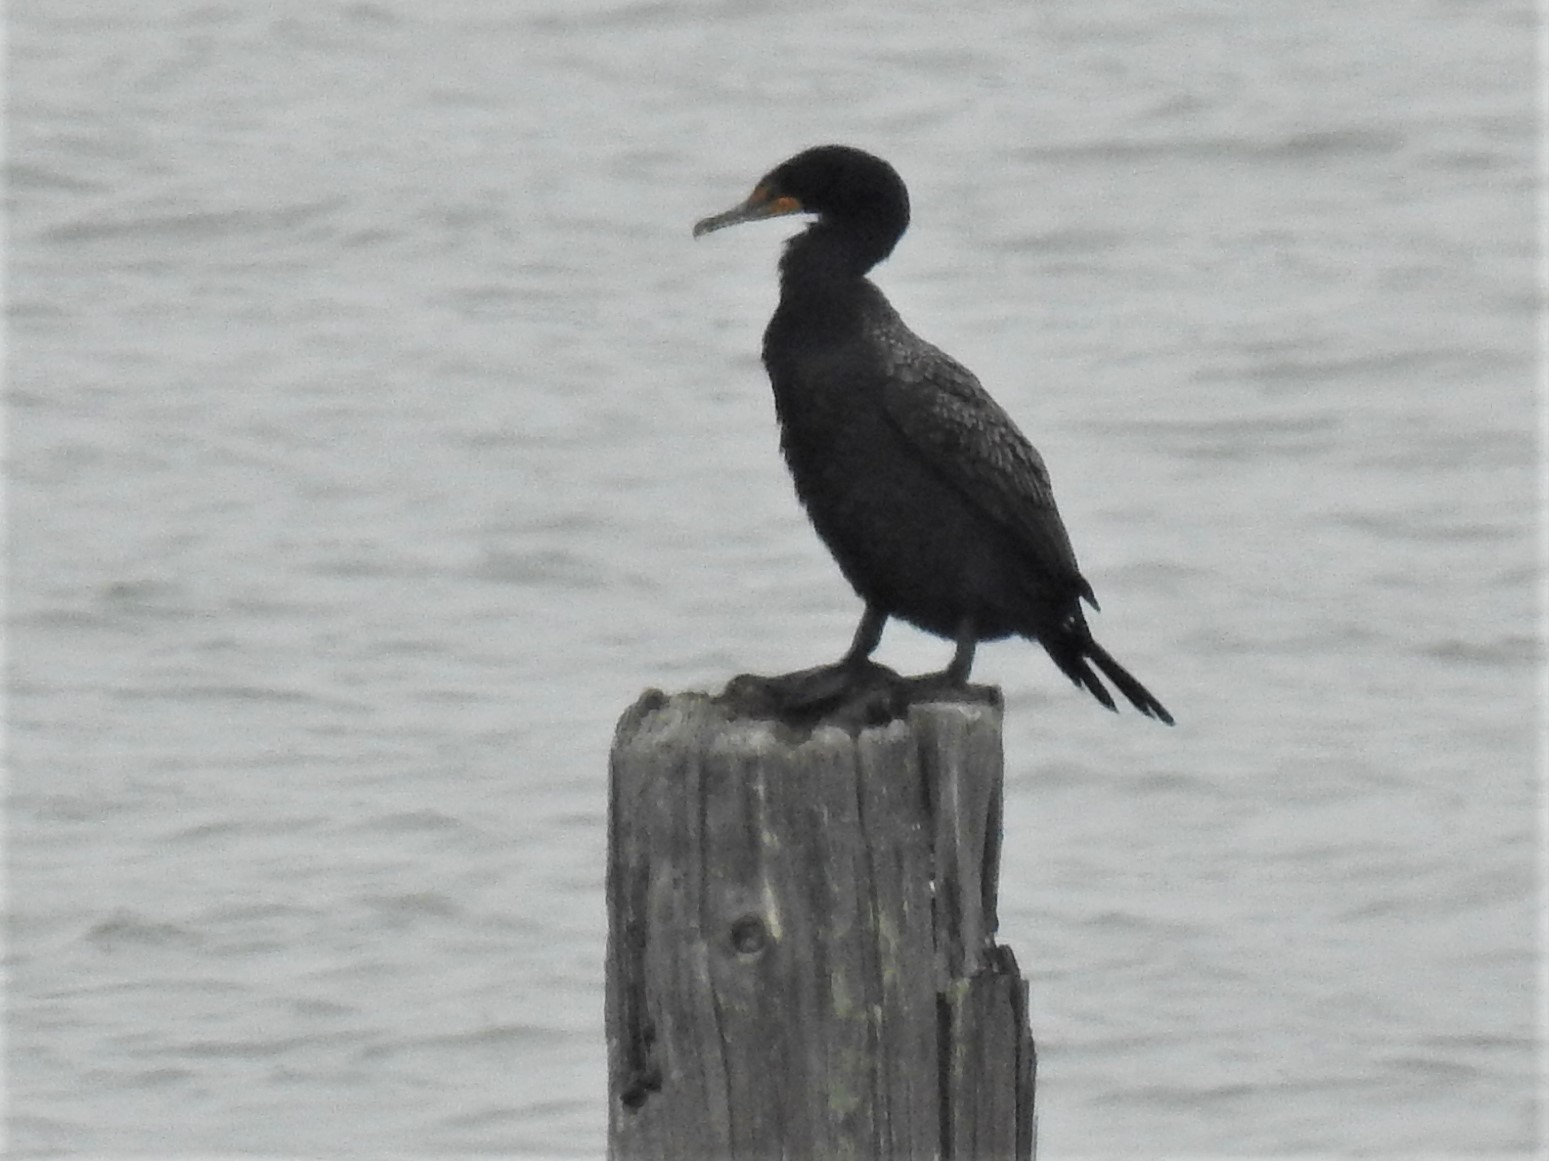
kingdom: Animalia
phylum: Chordata
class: Aves
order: Suliformes
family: Phalacrocoracidae
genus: Phalacrocorax
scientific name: Phalacrocorax auritus
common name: Double-crested cormorant
